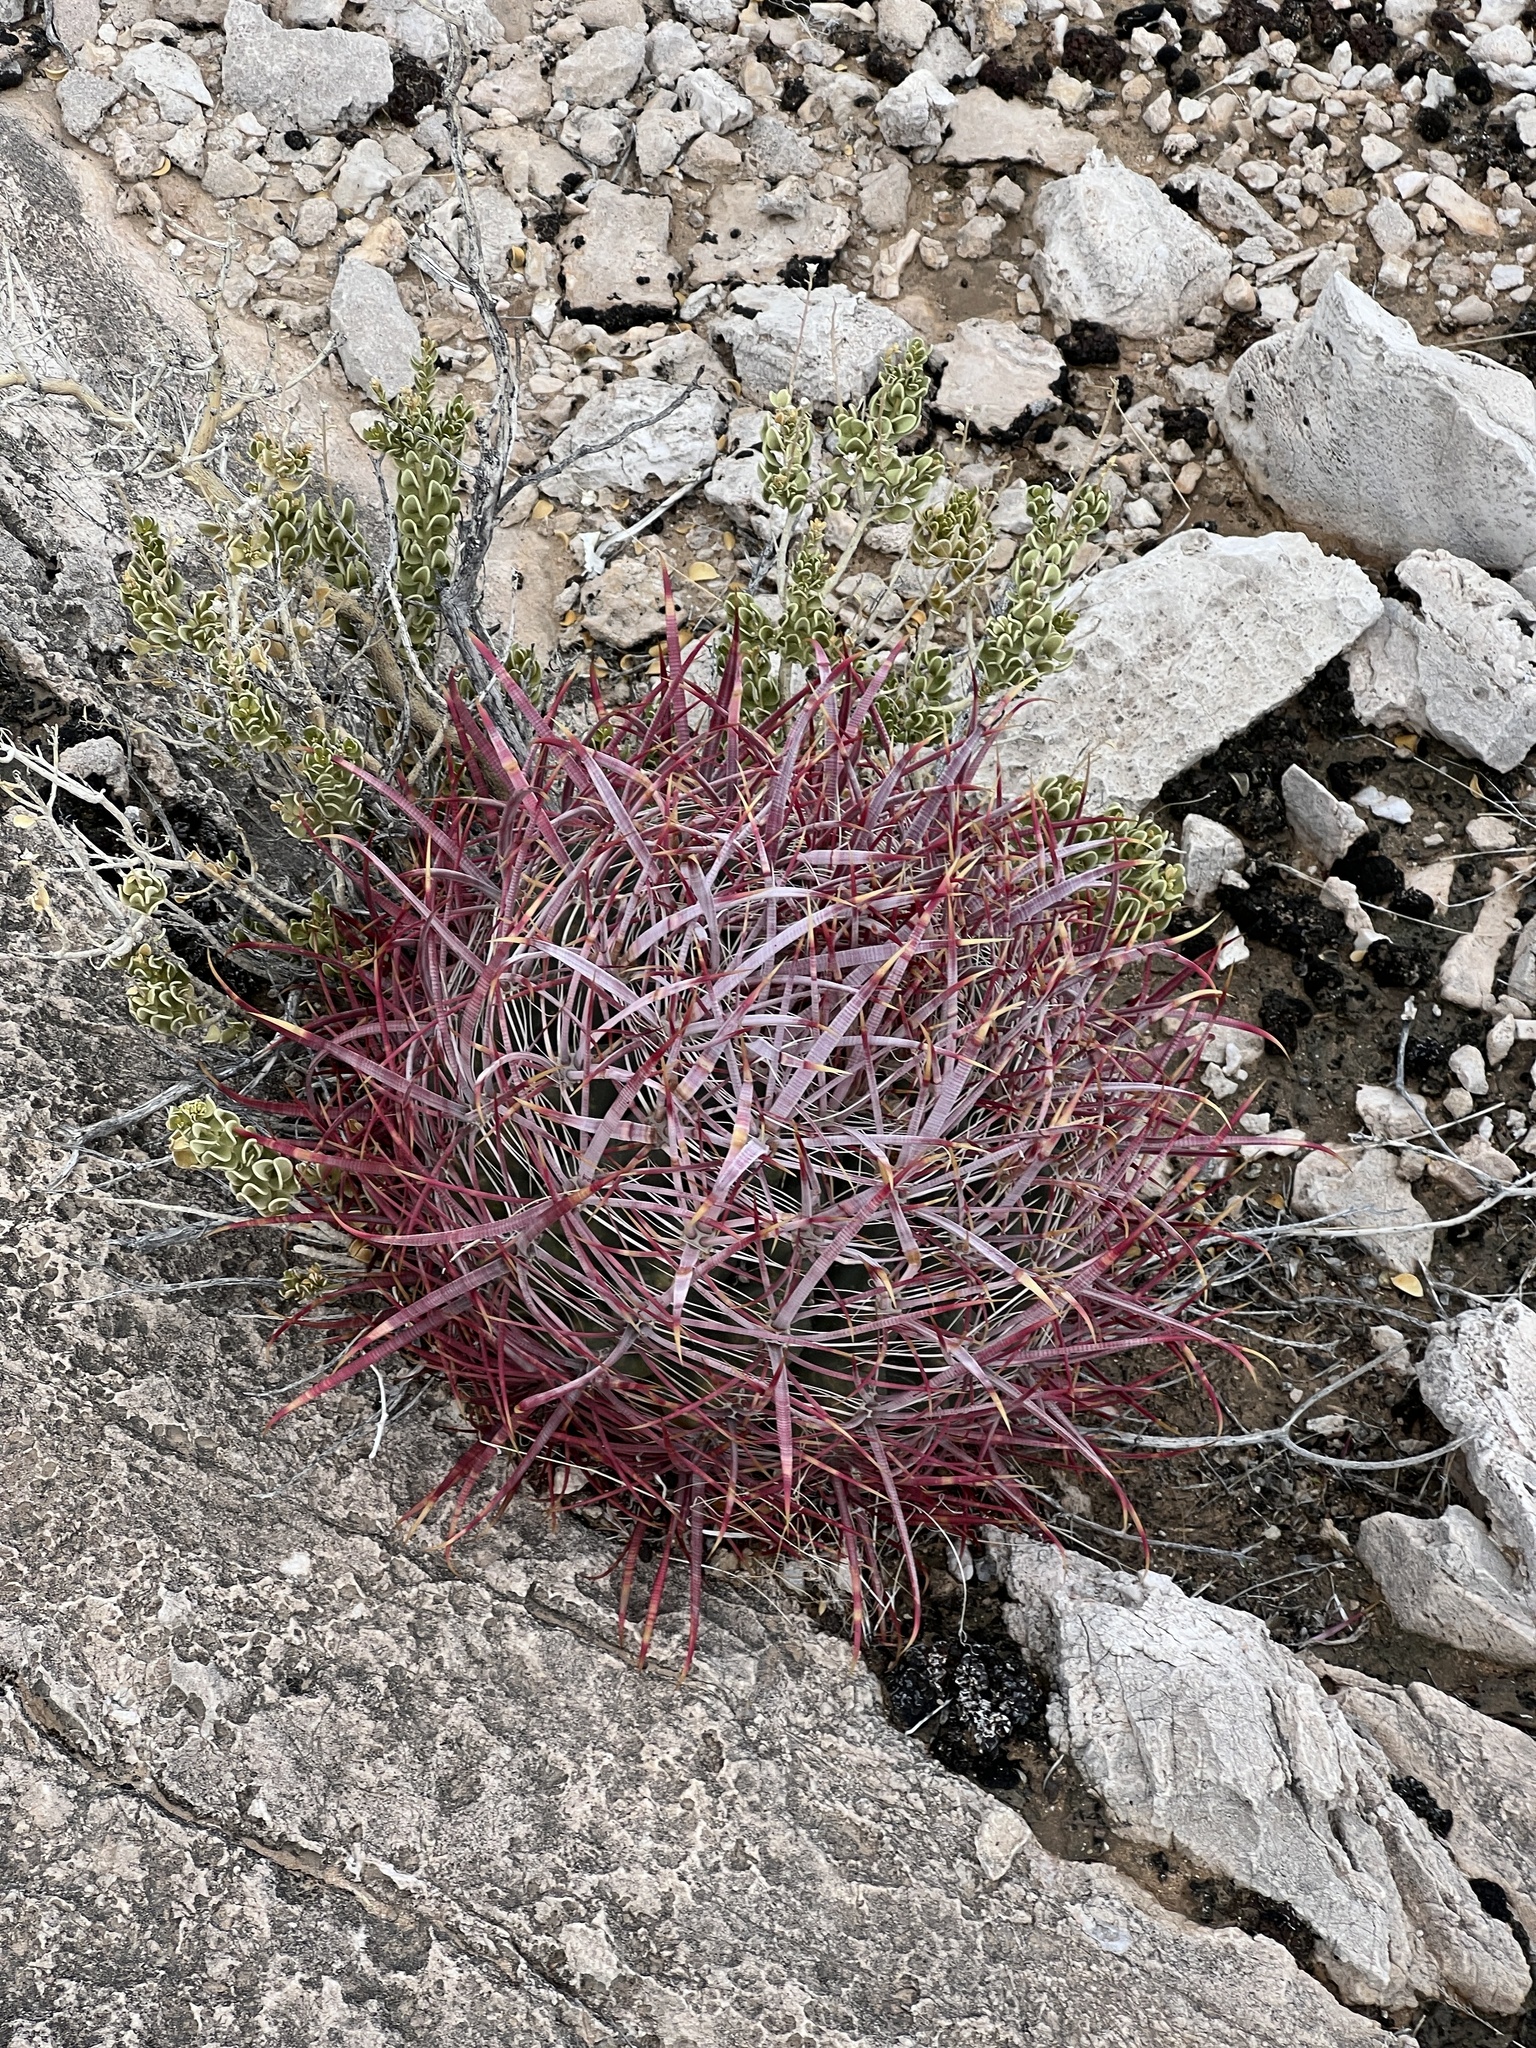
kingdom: Plantae
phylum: Tracheophyta
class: Magnoliopsida
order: Caryophyllales
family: Cactaceae
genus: Ferocactus
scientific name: Ferocactus cylindraceus
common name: California barrel cactus
